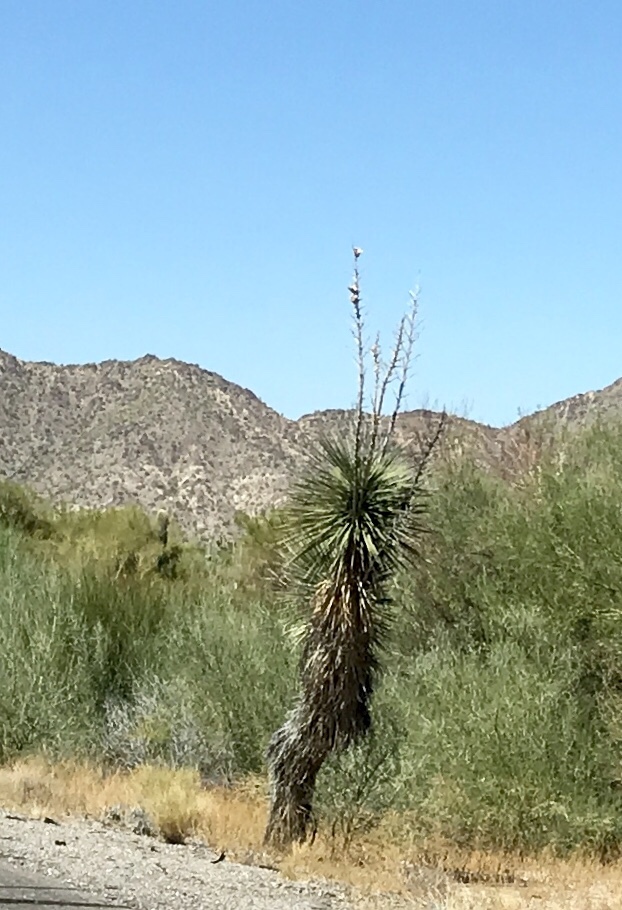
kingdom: Plantae
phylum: Tracheophyta
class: Liliopsida
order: Asparagales
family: Asparagaceae
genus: Yucca
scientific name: Yucca elata
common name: Palmella
